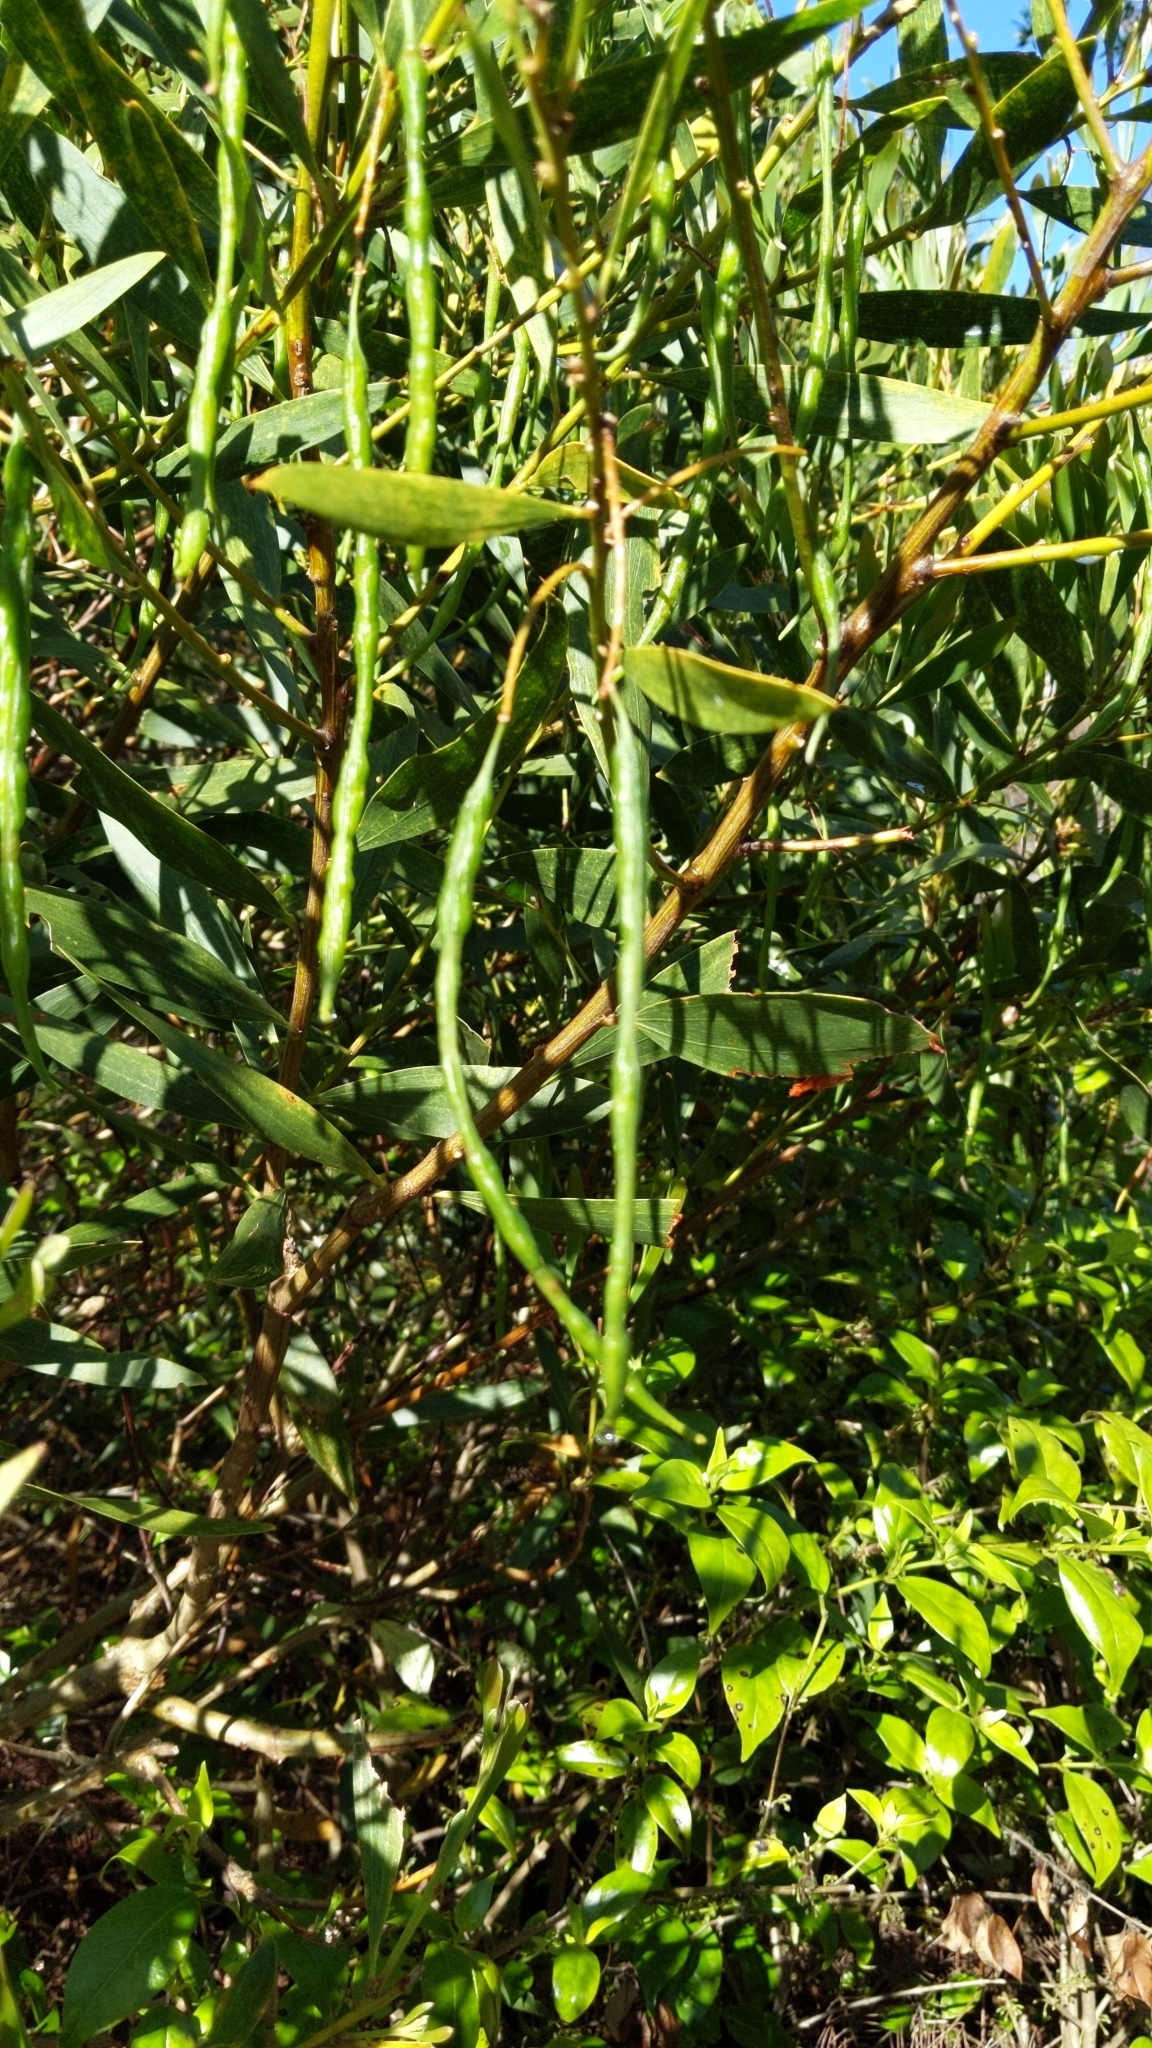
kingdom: Plantae
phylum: Tracheophyta
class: Magnoliopsida
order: Fabales
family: Fabaceae
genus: Acacia
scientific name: Acacia longifolia
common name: Sydney golden wattle
